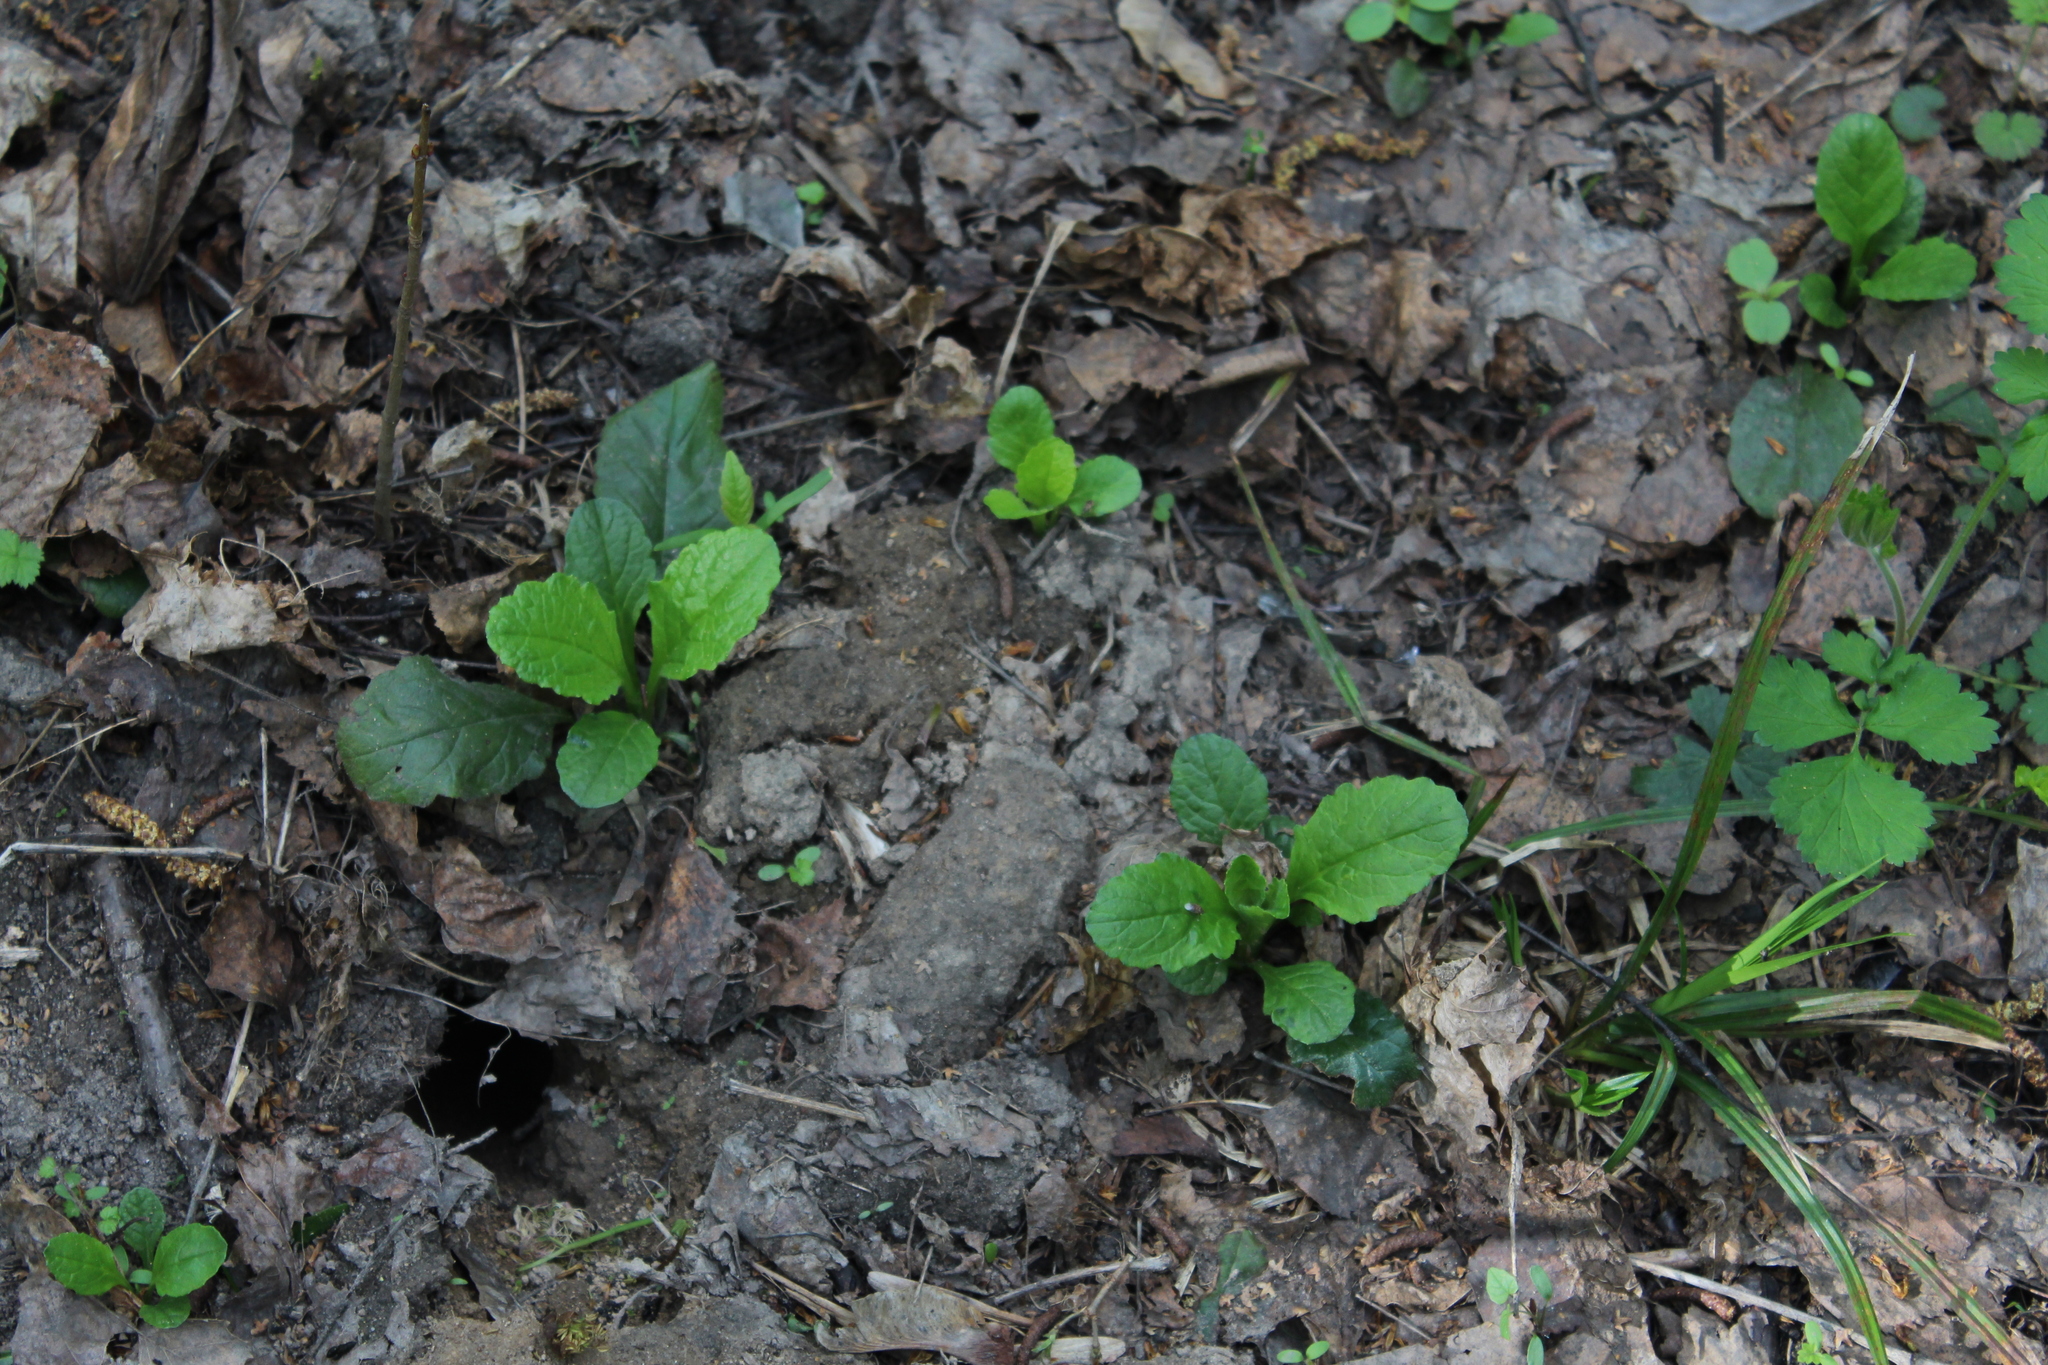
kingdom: Plantae
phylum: Tracheophyta
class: Magnoliopsida
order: Lamiales
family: Lamiaceae
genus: Ajuga
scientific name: Ajuga reptans
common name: Bugle
